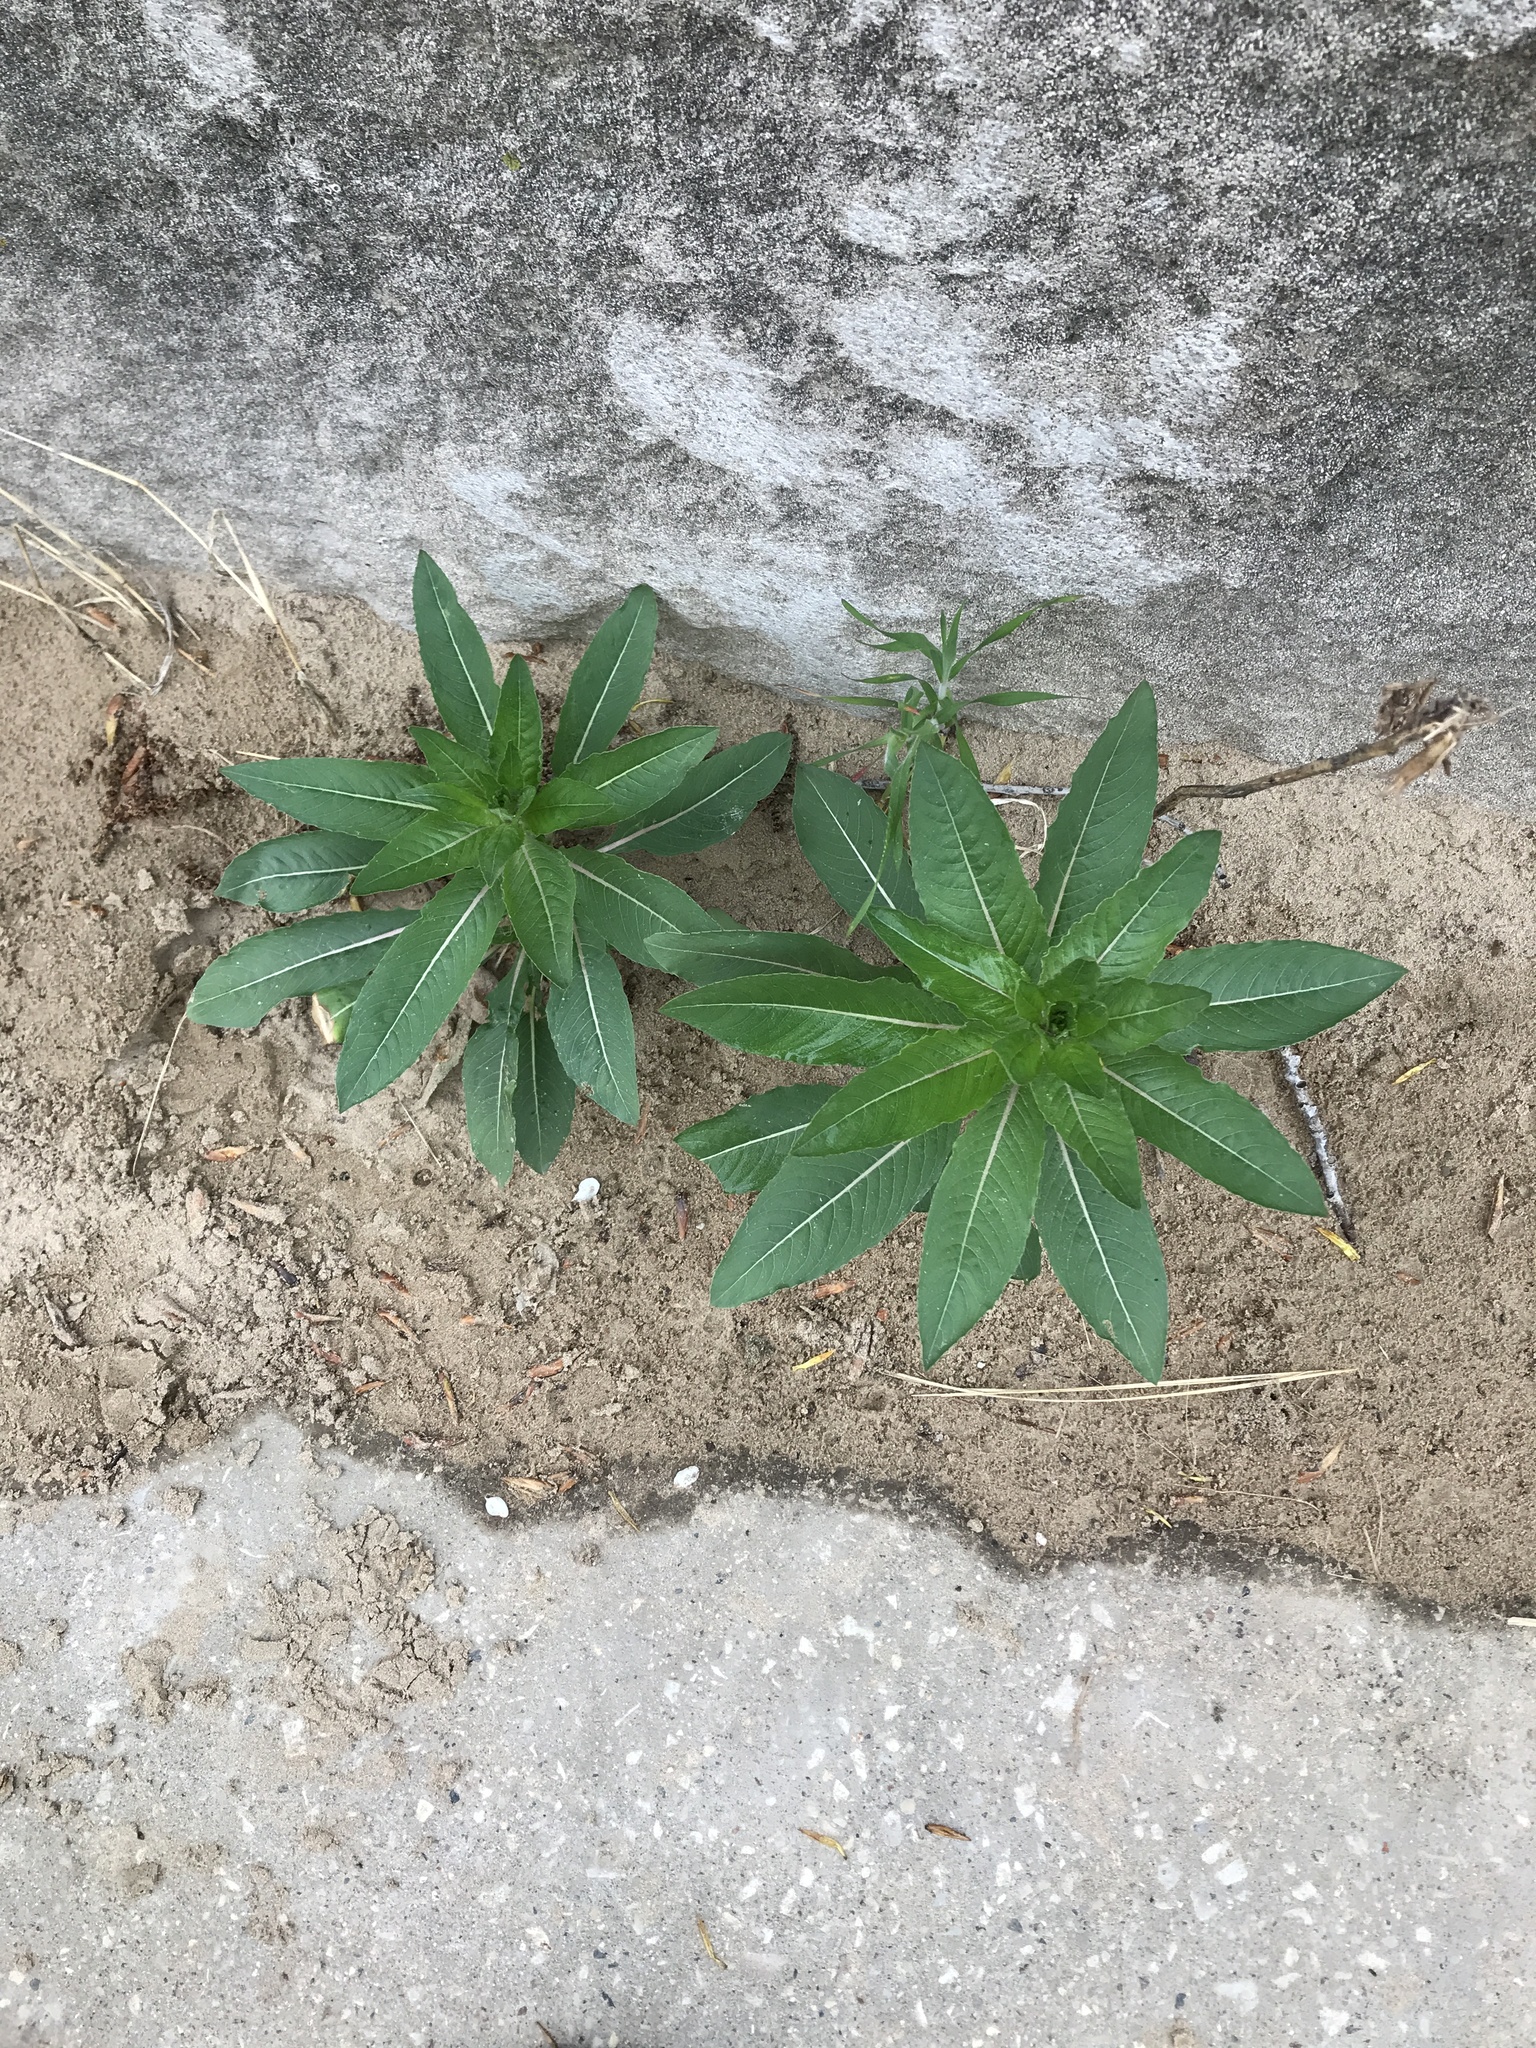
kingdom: Plantae
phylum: Tracheophyta
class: Magnoliopsida
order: Myrtales
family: Onagraceae
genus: Oenothera
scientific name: Oenothera biennis
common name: Common evening-primrose
